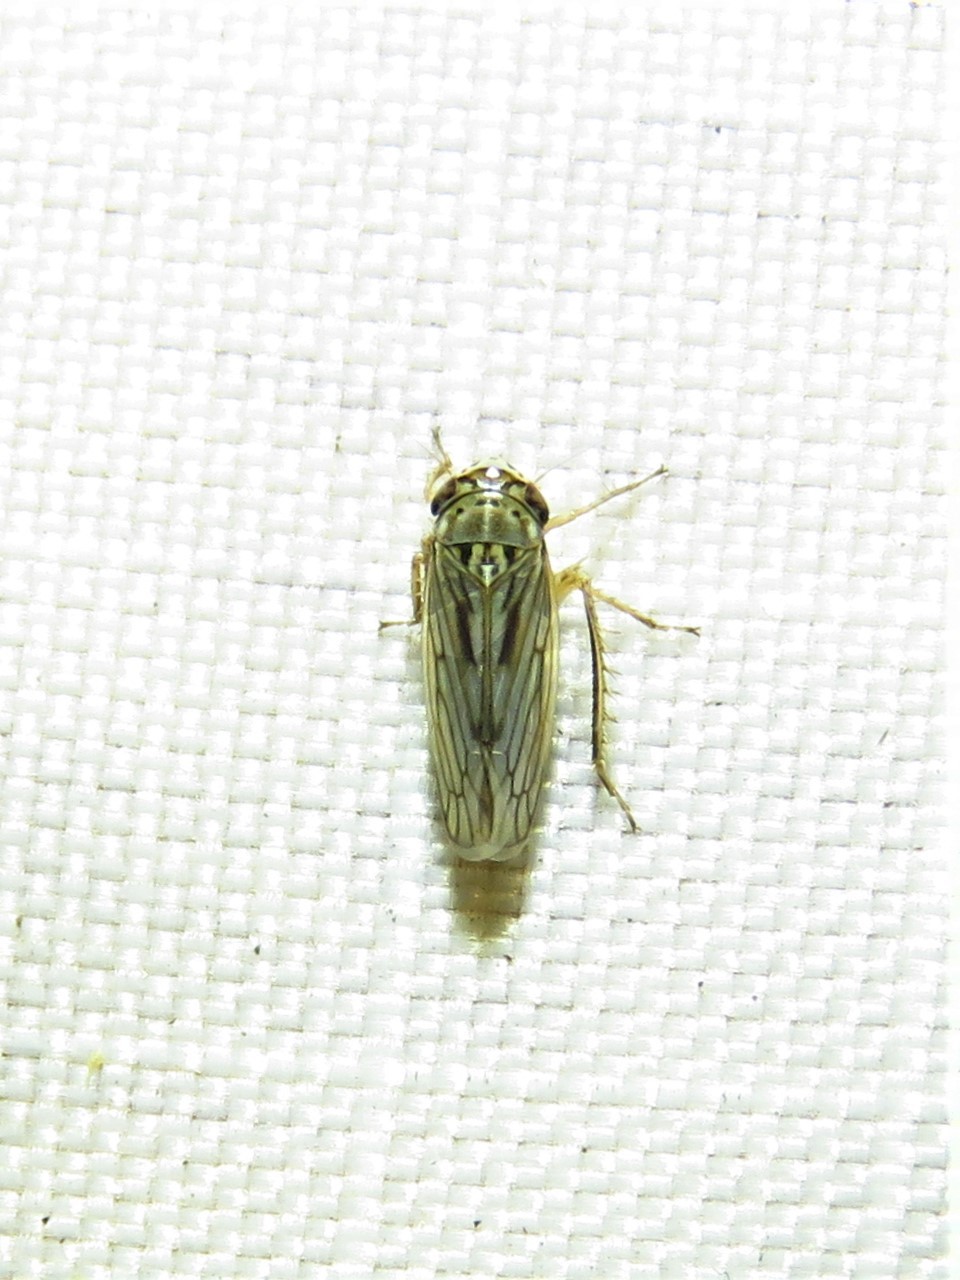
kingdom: Animalia
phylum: Arthropoda
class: Insecta
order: Hemiptera
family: Cicadellidae
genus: Exitianus
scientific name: Exitianus exitiosus
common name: Gray lawn leafhopper
